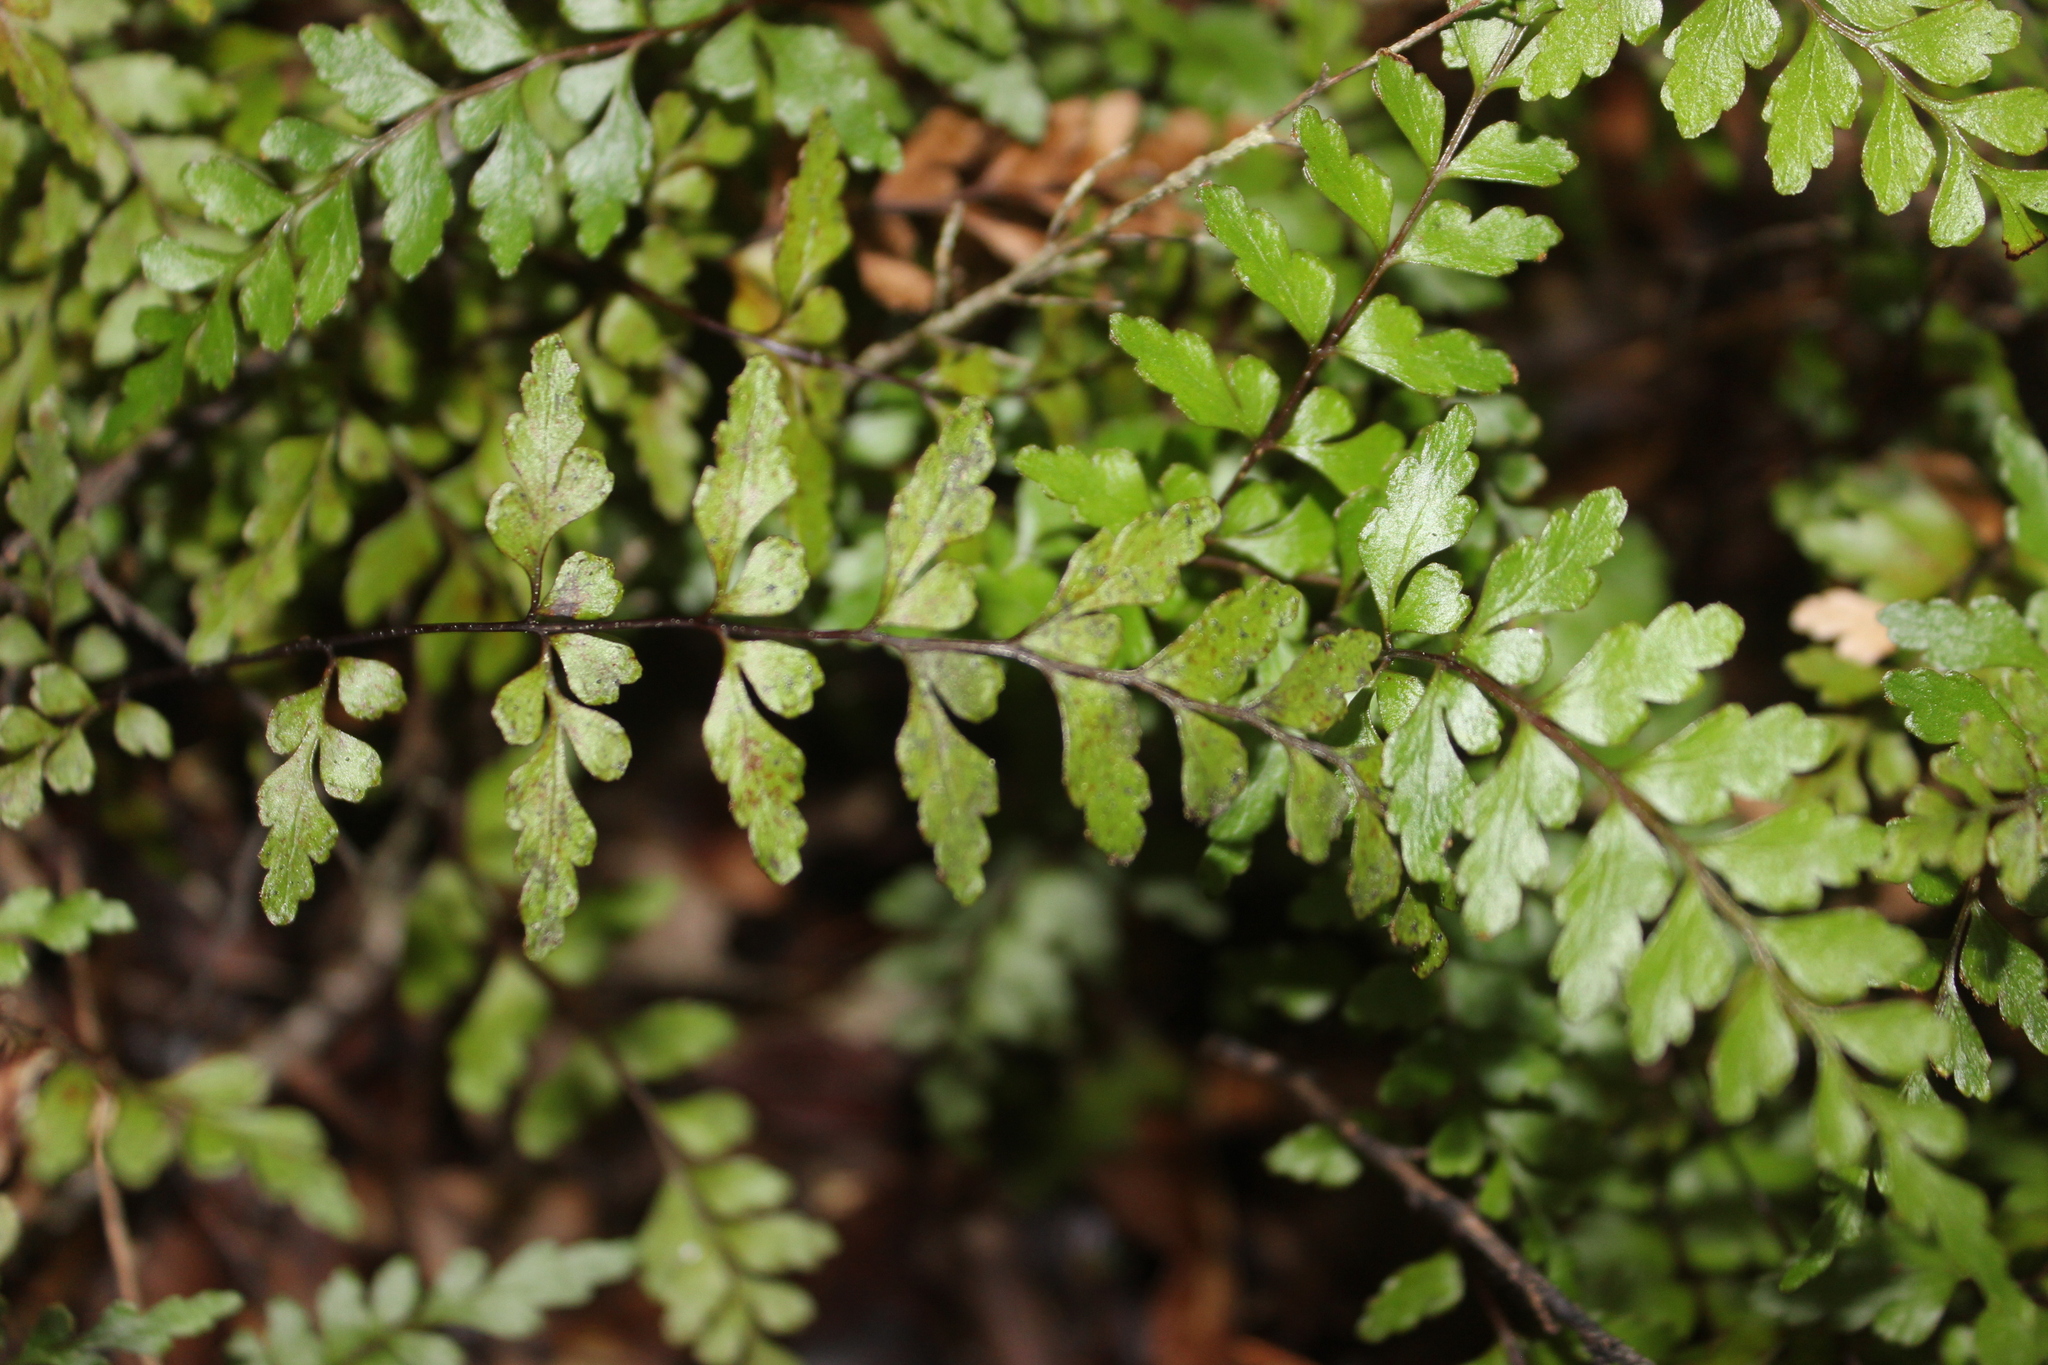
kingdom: Plantae
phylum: Tracheophyta
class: Polypodiopsida
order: Polypodiales
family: Lindsaeaceae
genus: Lindsaea
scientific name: Lindsaea trichomanoides
